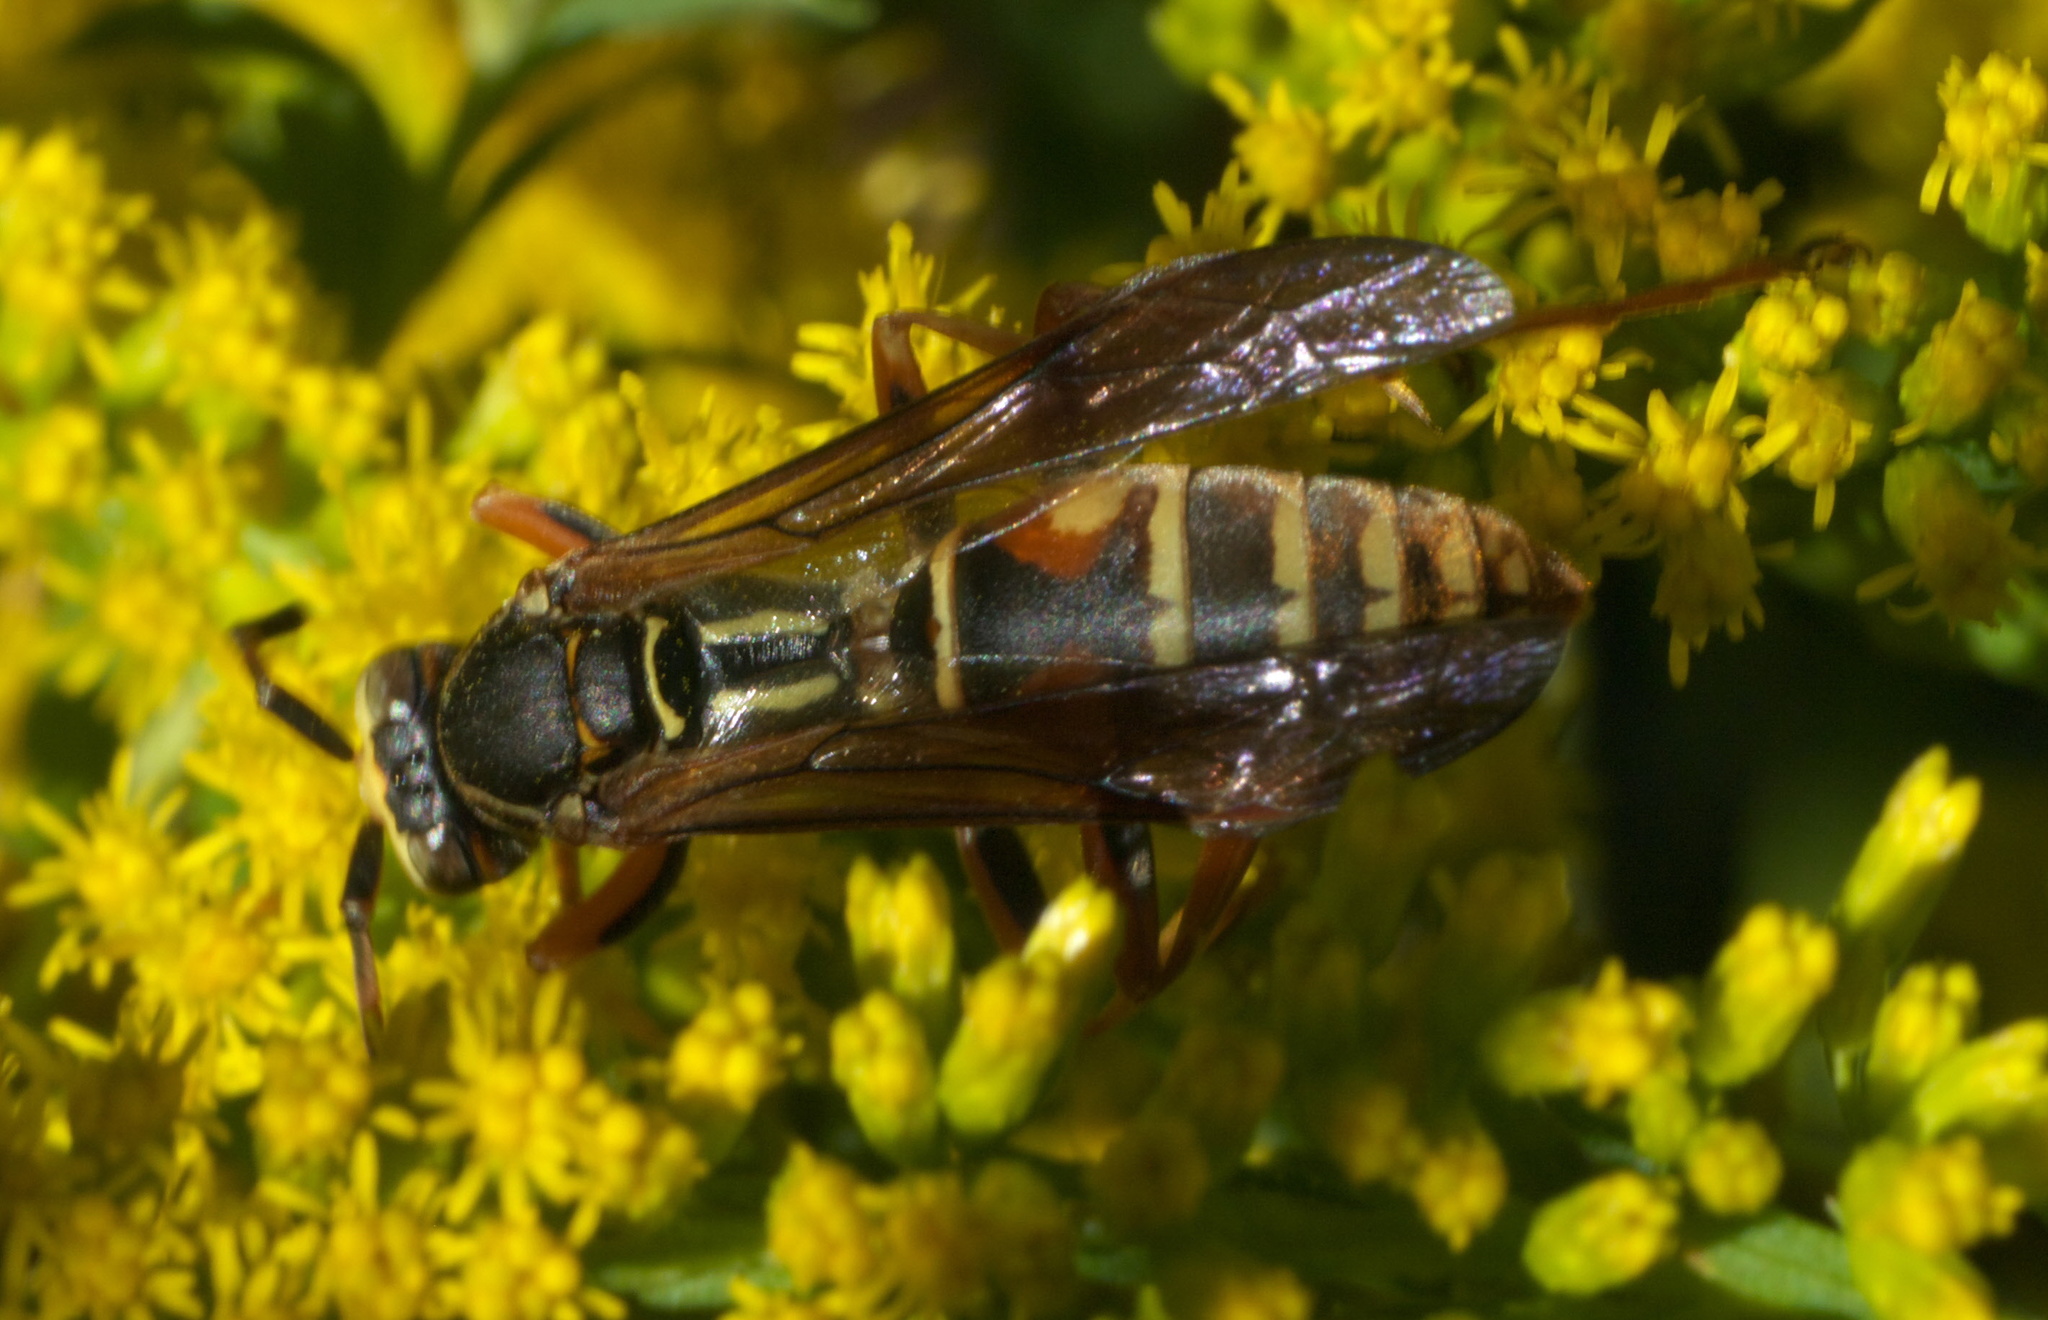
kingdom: Animalia
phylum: Arthropoda
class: Insecta
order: Hymenoptera
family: Eumenidae
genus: Polistes
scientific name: Polistes fuscatus
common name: Dark paper wasp
